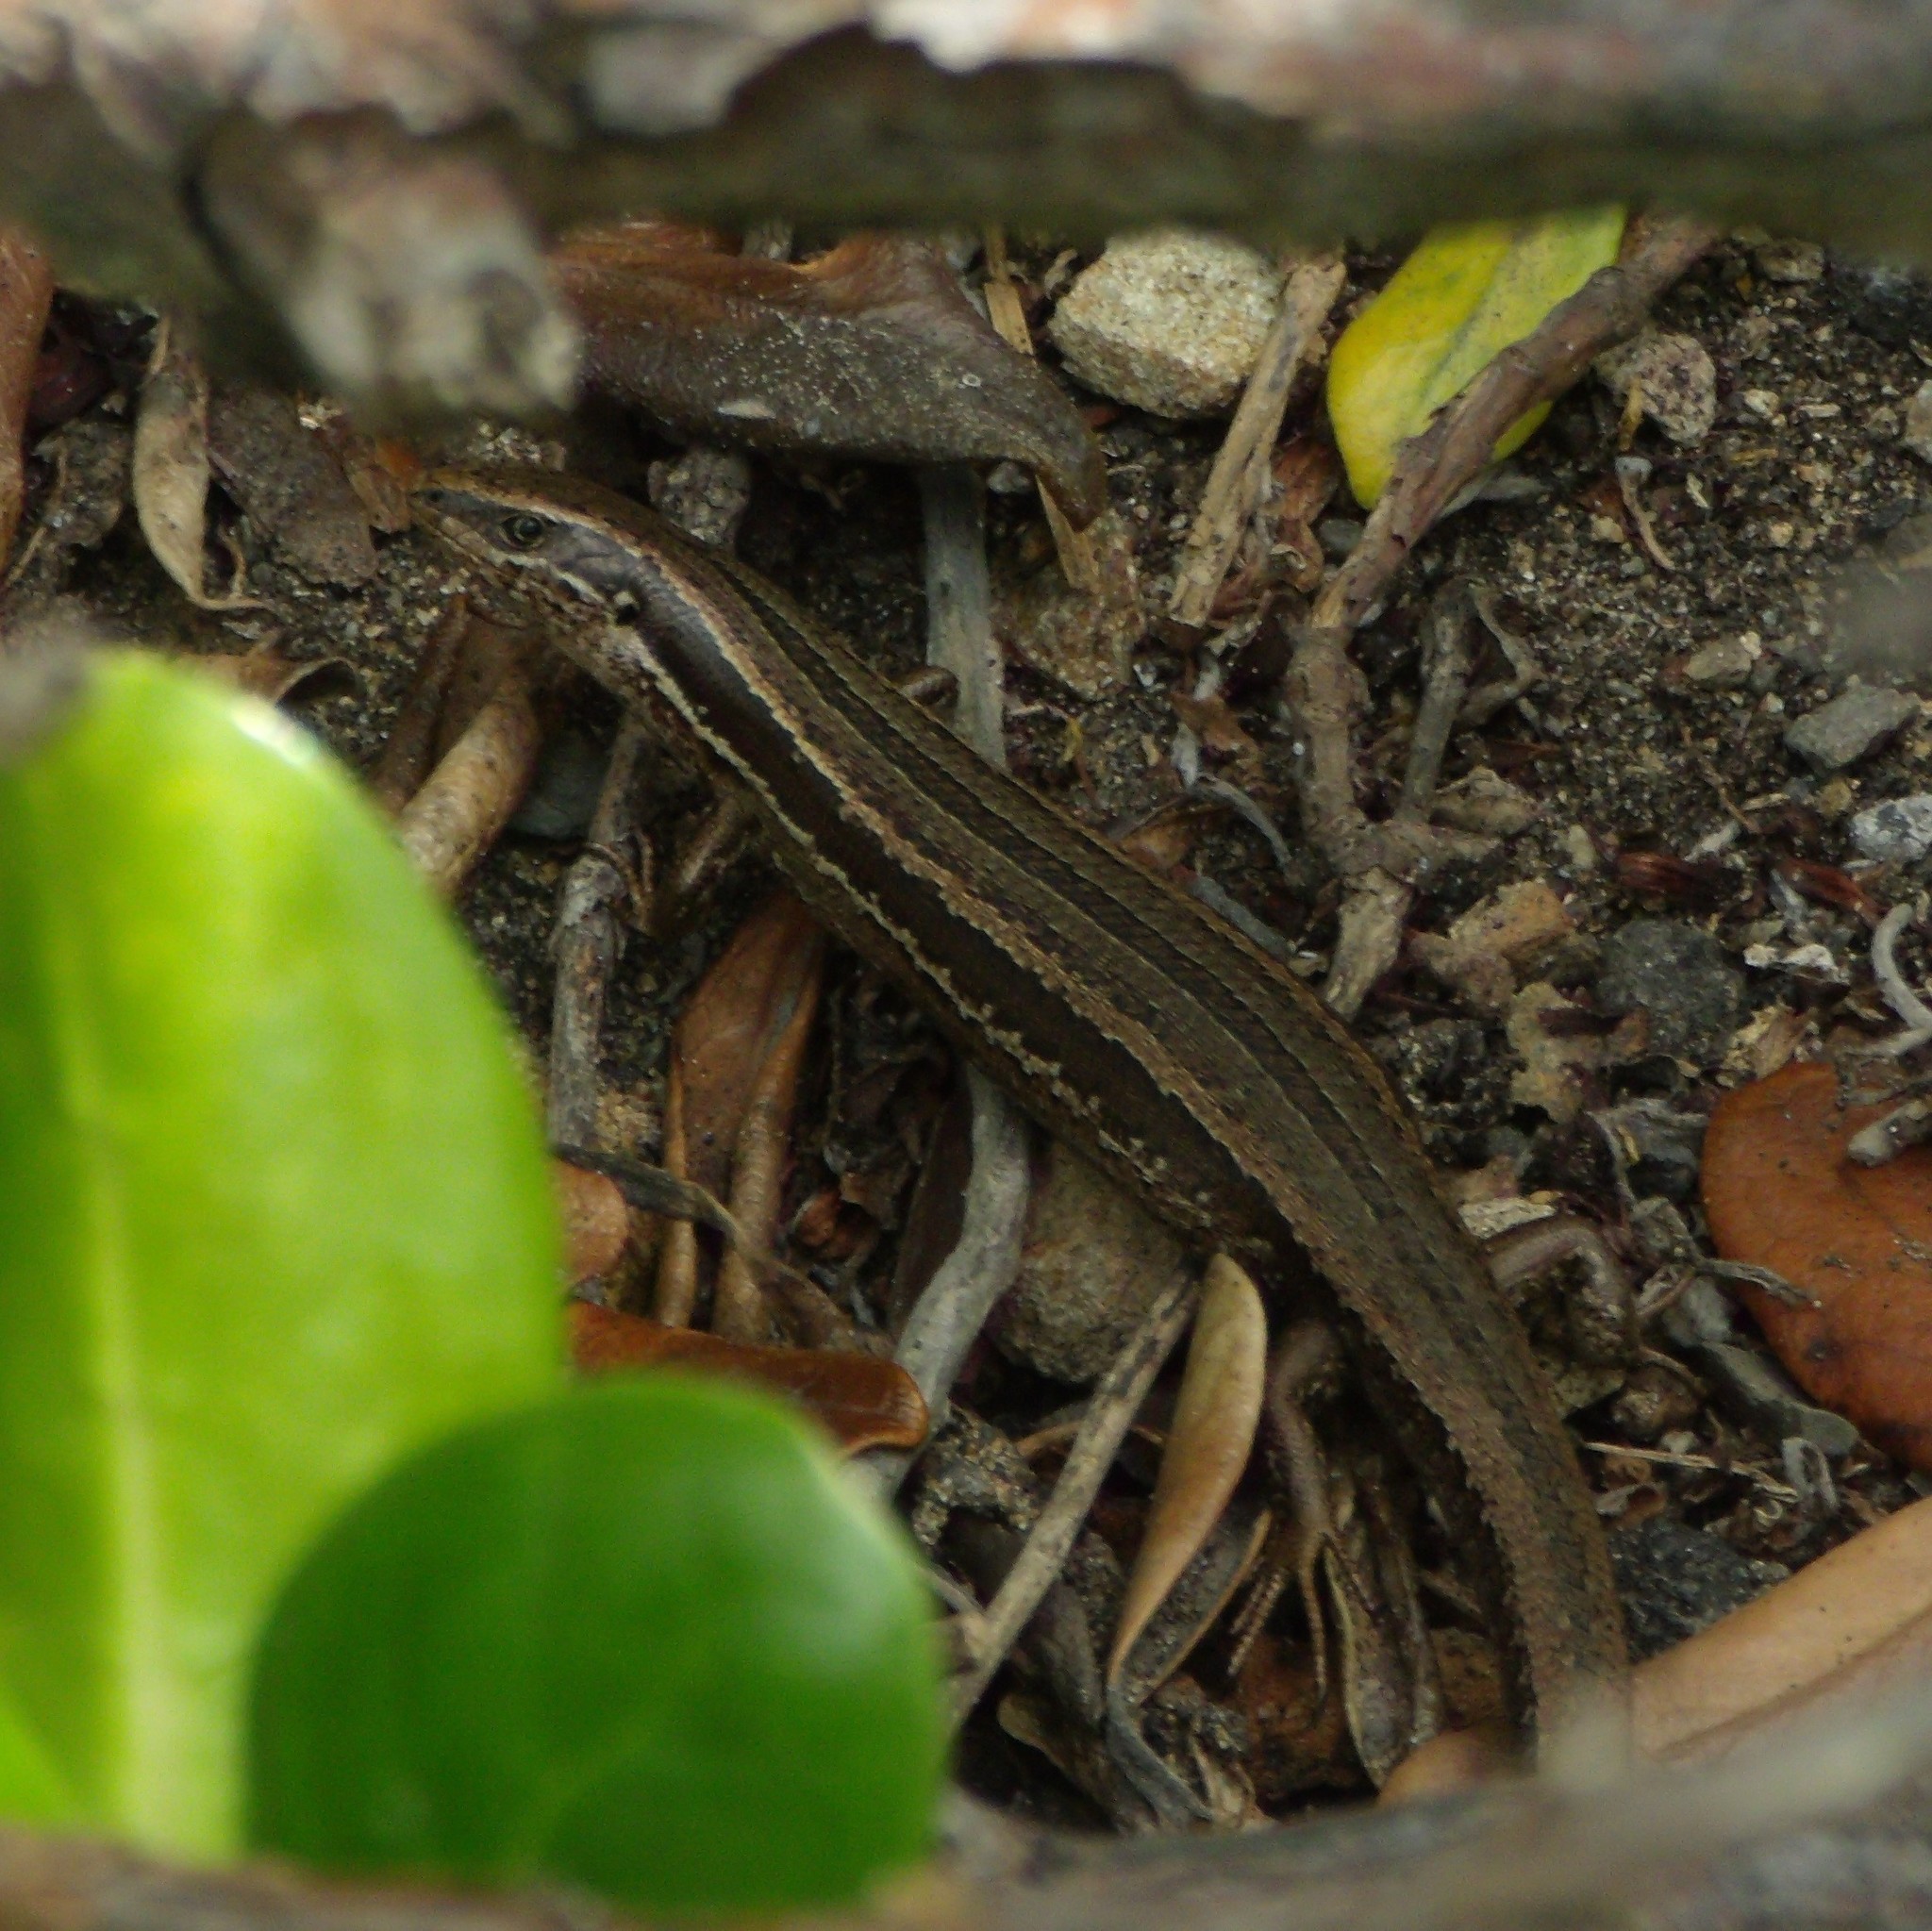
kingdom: Animalia
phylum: Chordata
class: Squamata
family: Scincidae
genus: Oligosoma
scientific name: Oligosoma polychroma
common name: Common new zealand skink
